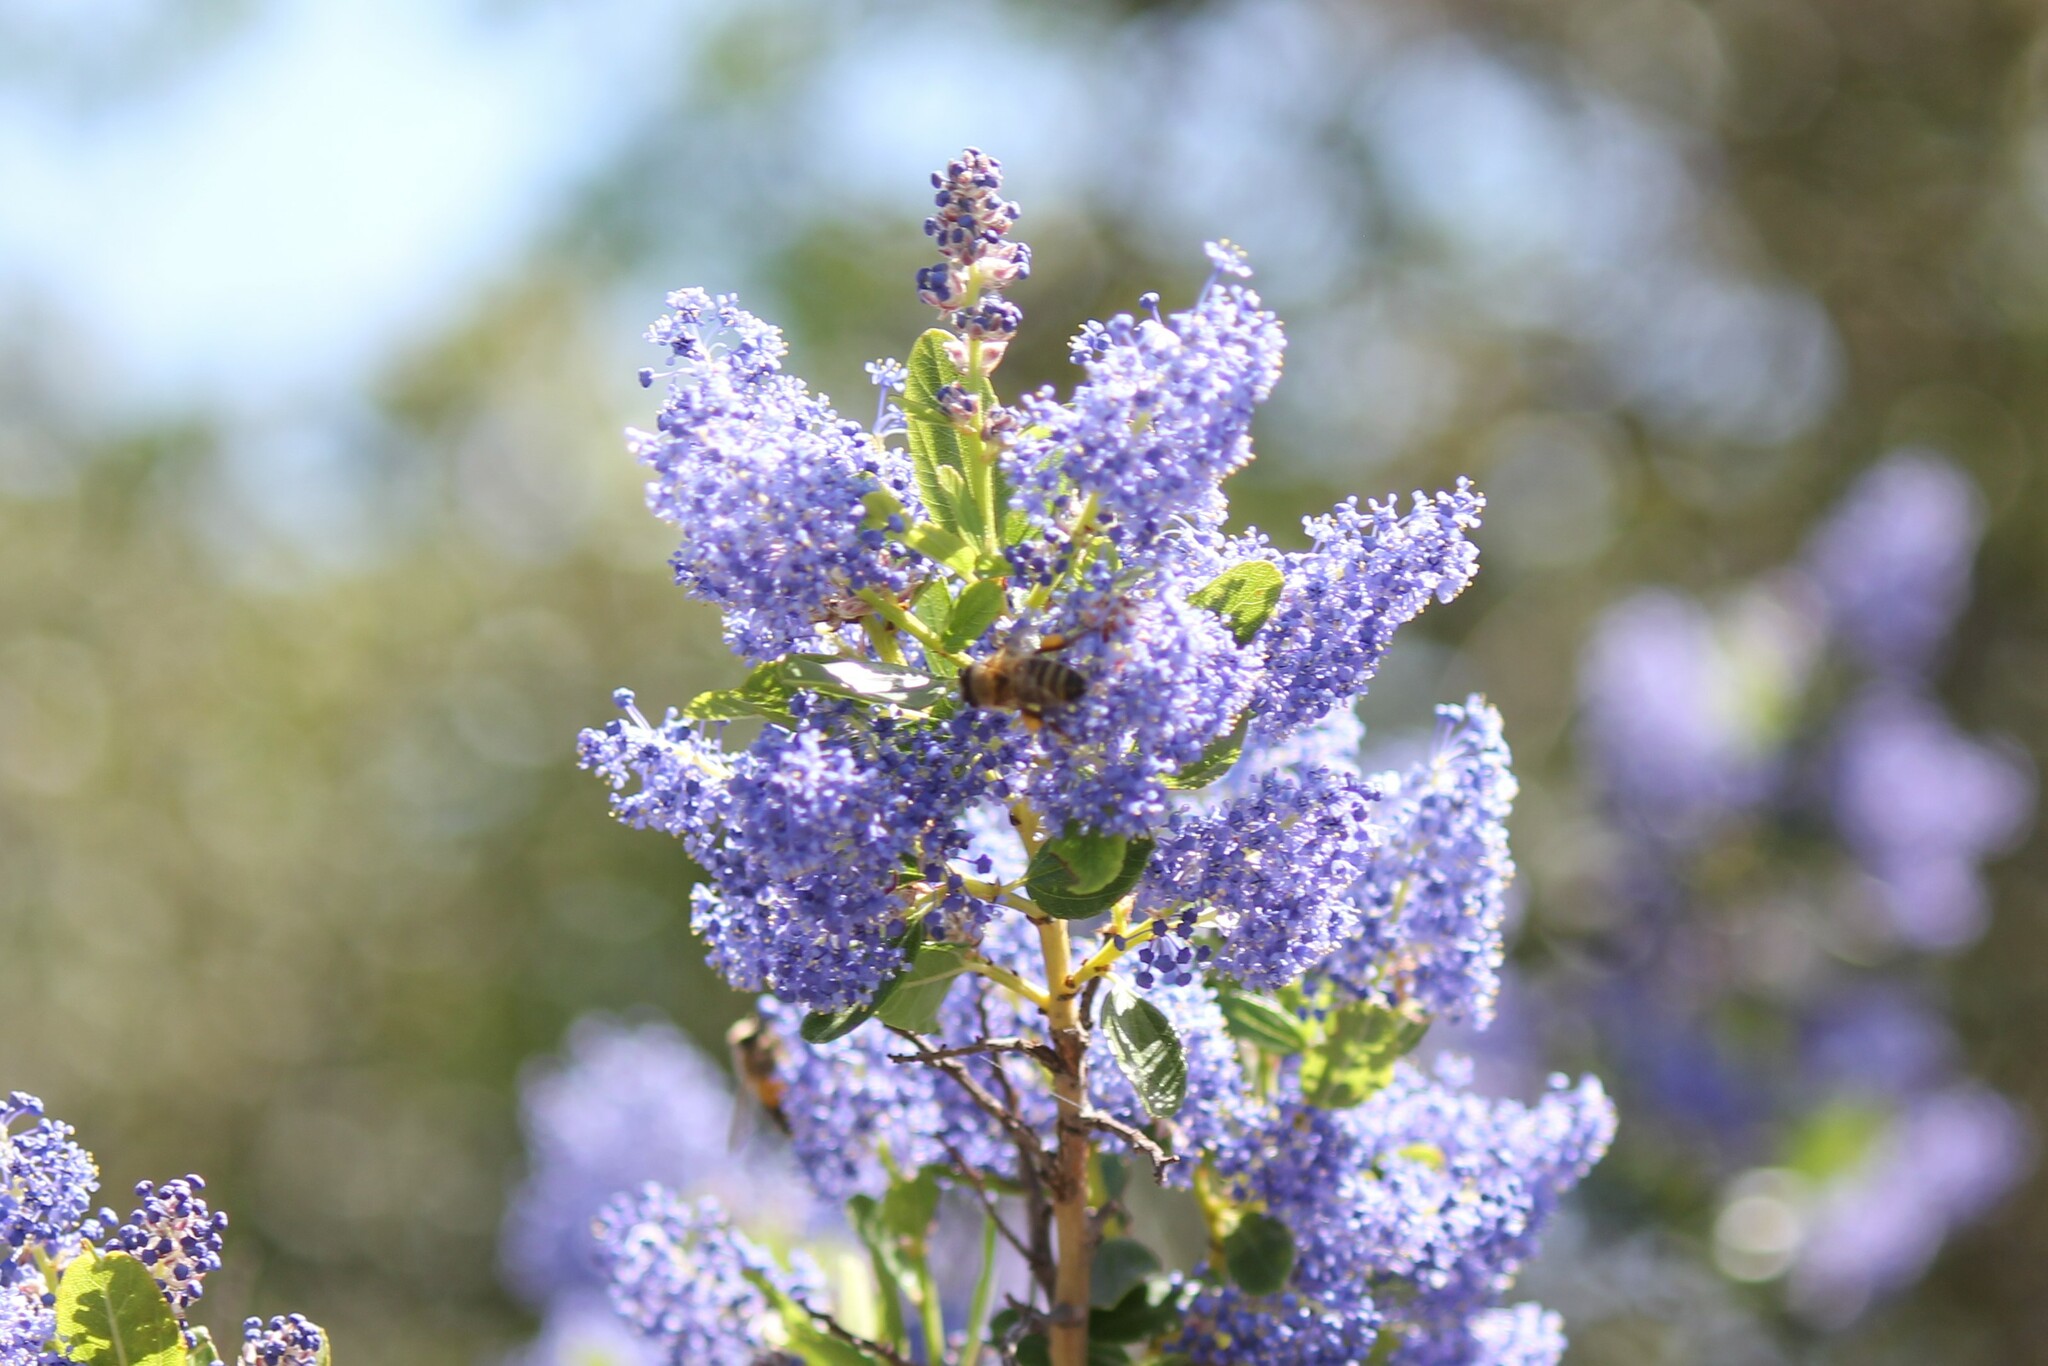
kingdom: Animalia
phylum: Arthropoda
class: Insecta
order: Hymenoptera
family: Apidae
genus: Apis
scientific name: Apis mellifera
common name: Honey bee
